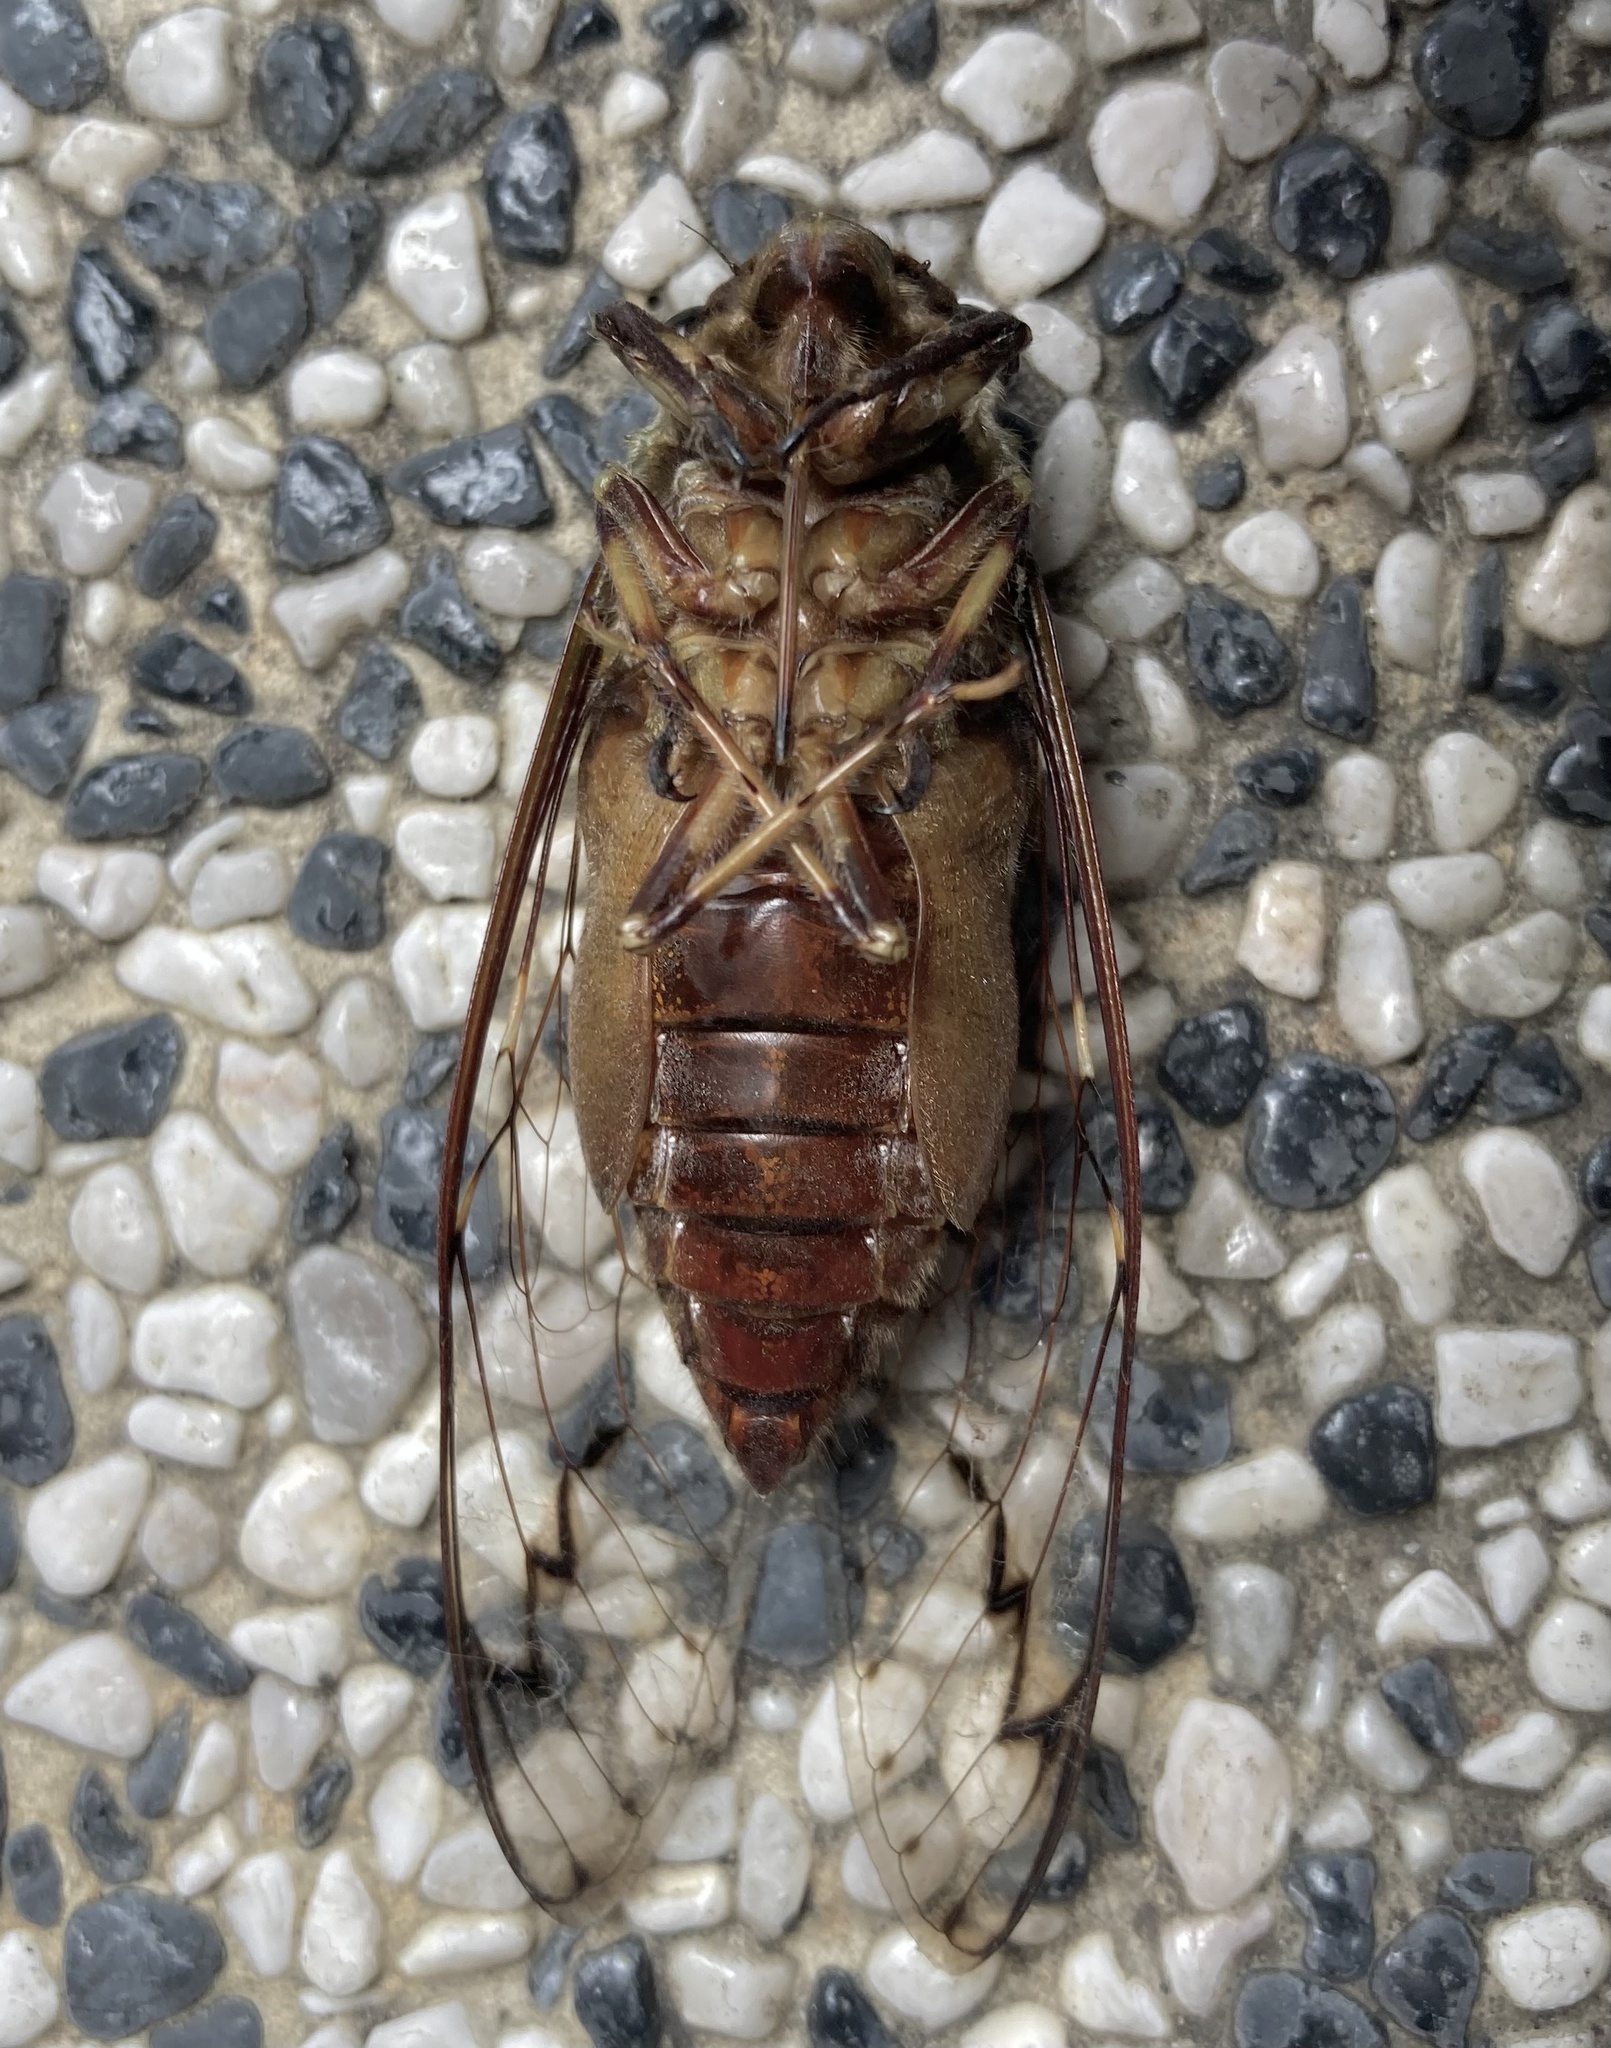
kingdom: Animalia
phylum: Arthropoda
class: Insecta
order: Hemiptera
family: Cicadidae
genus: Champaka
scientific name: Champaka spinosa
